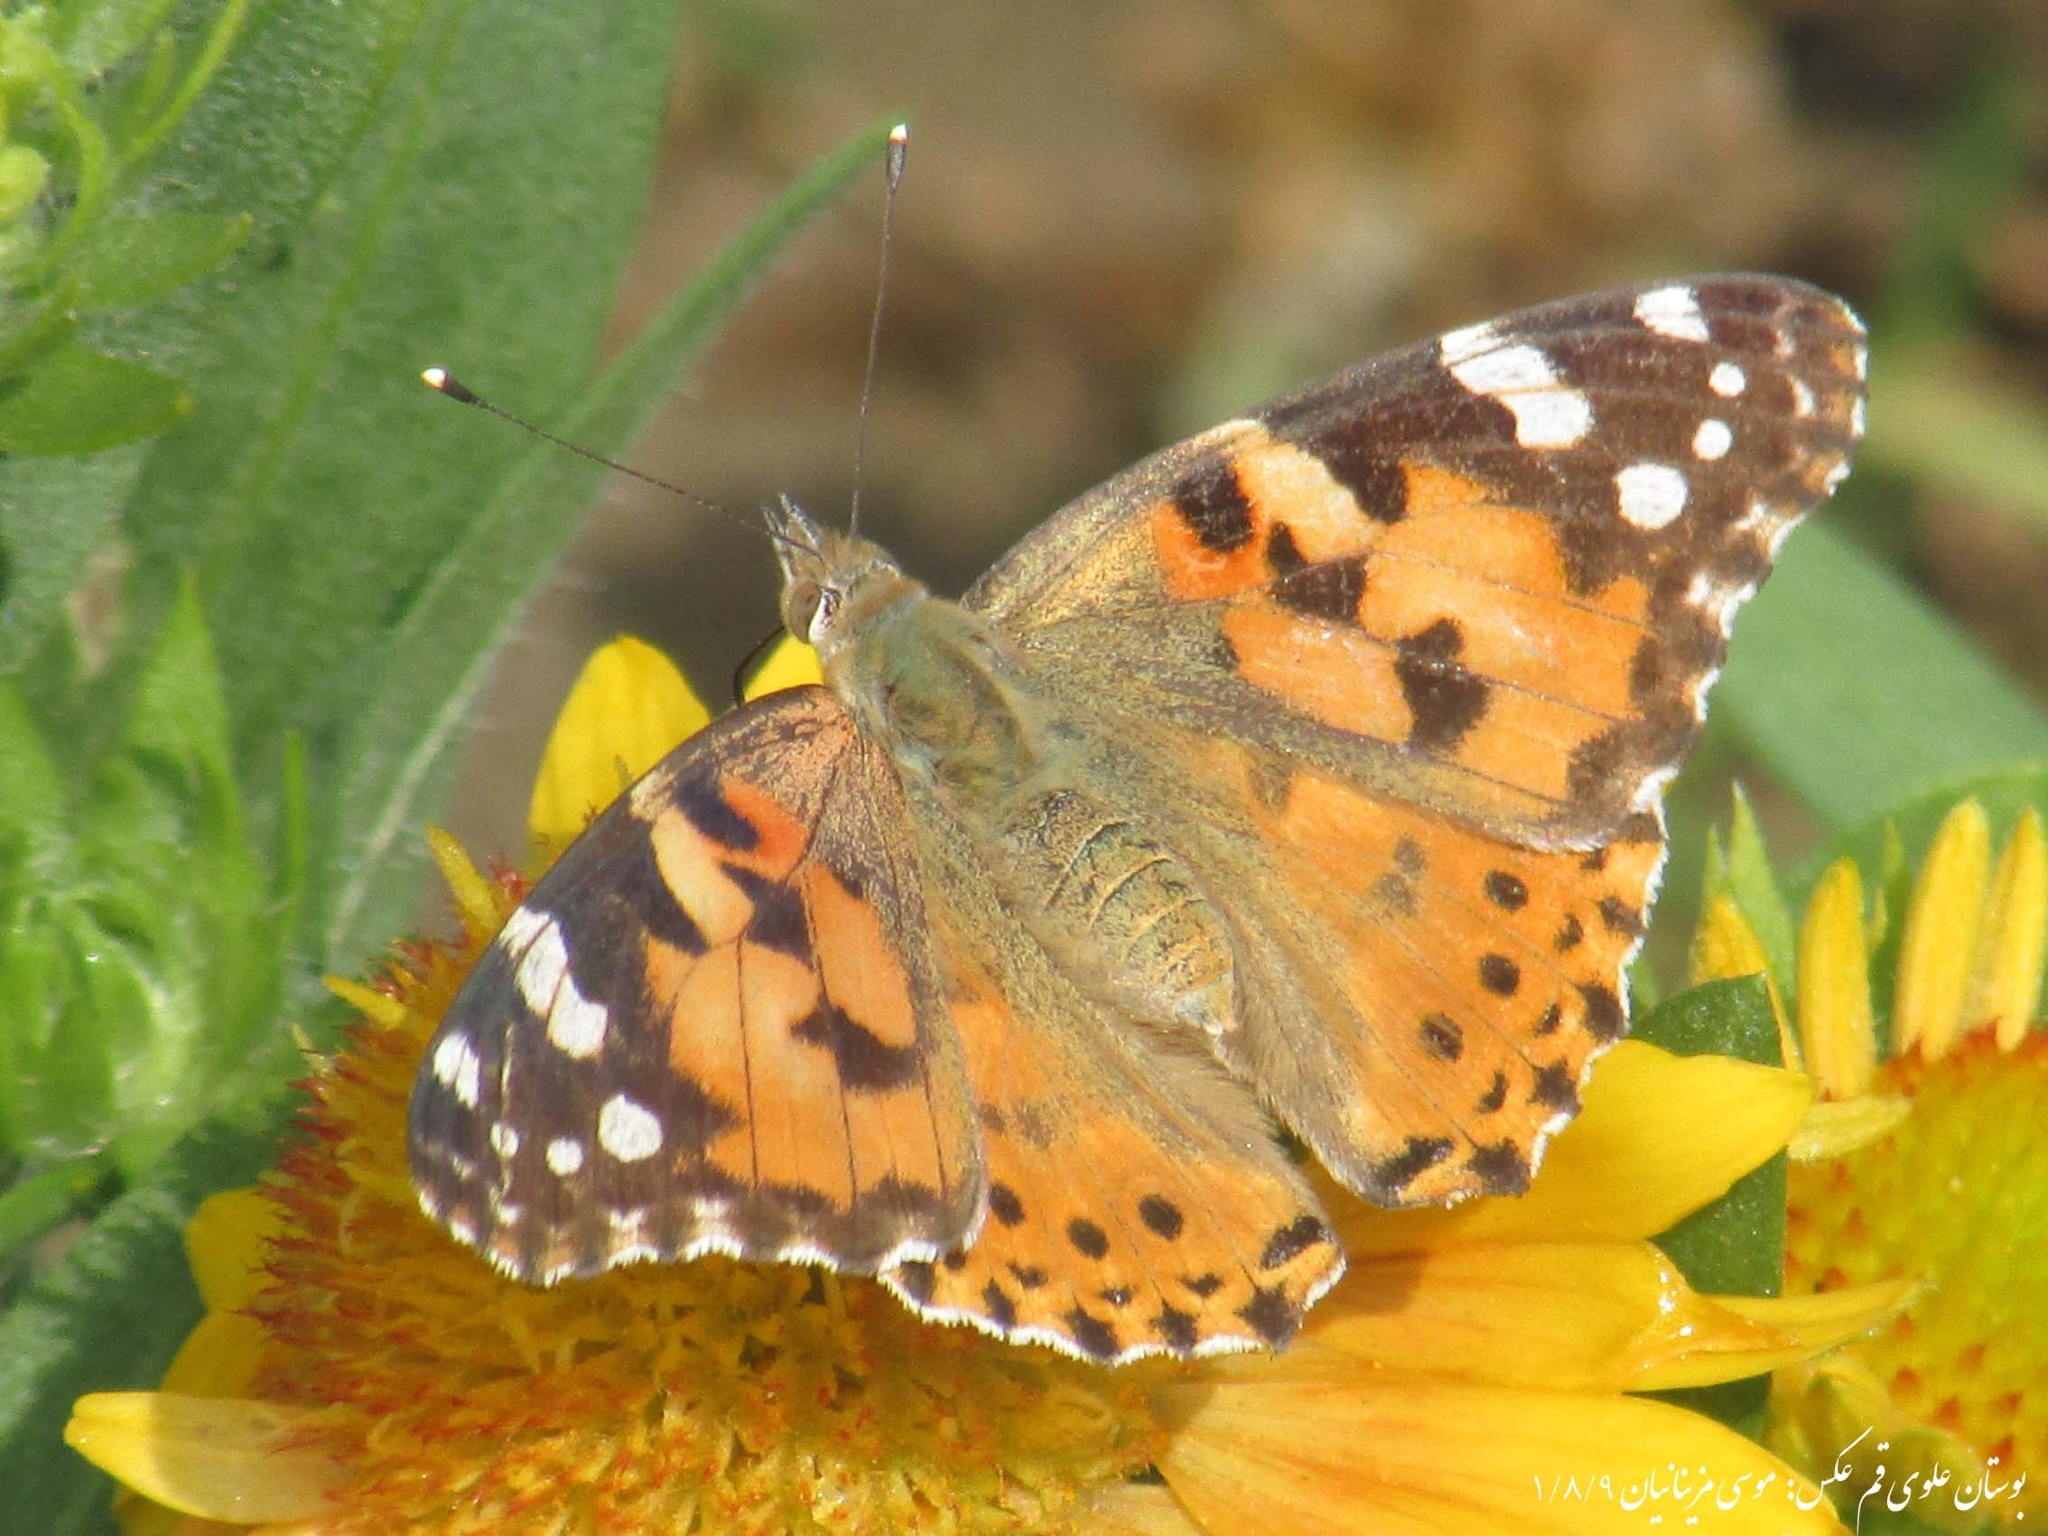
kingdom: Animalia
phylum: Arthropoda
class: Insecta
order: Lepidoptera
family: Nymphalidae
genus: Vanessa
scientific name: Vanessa cardui
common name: Painted lady
